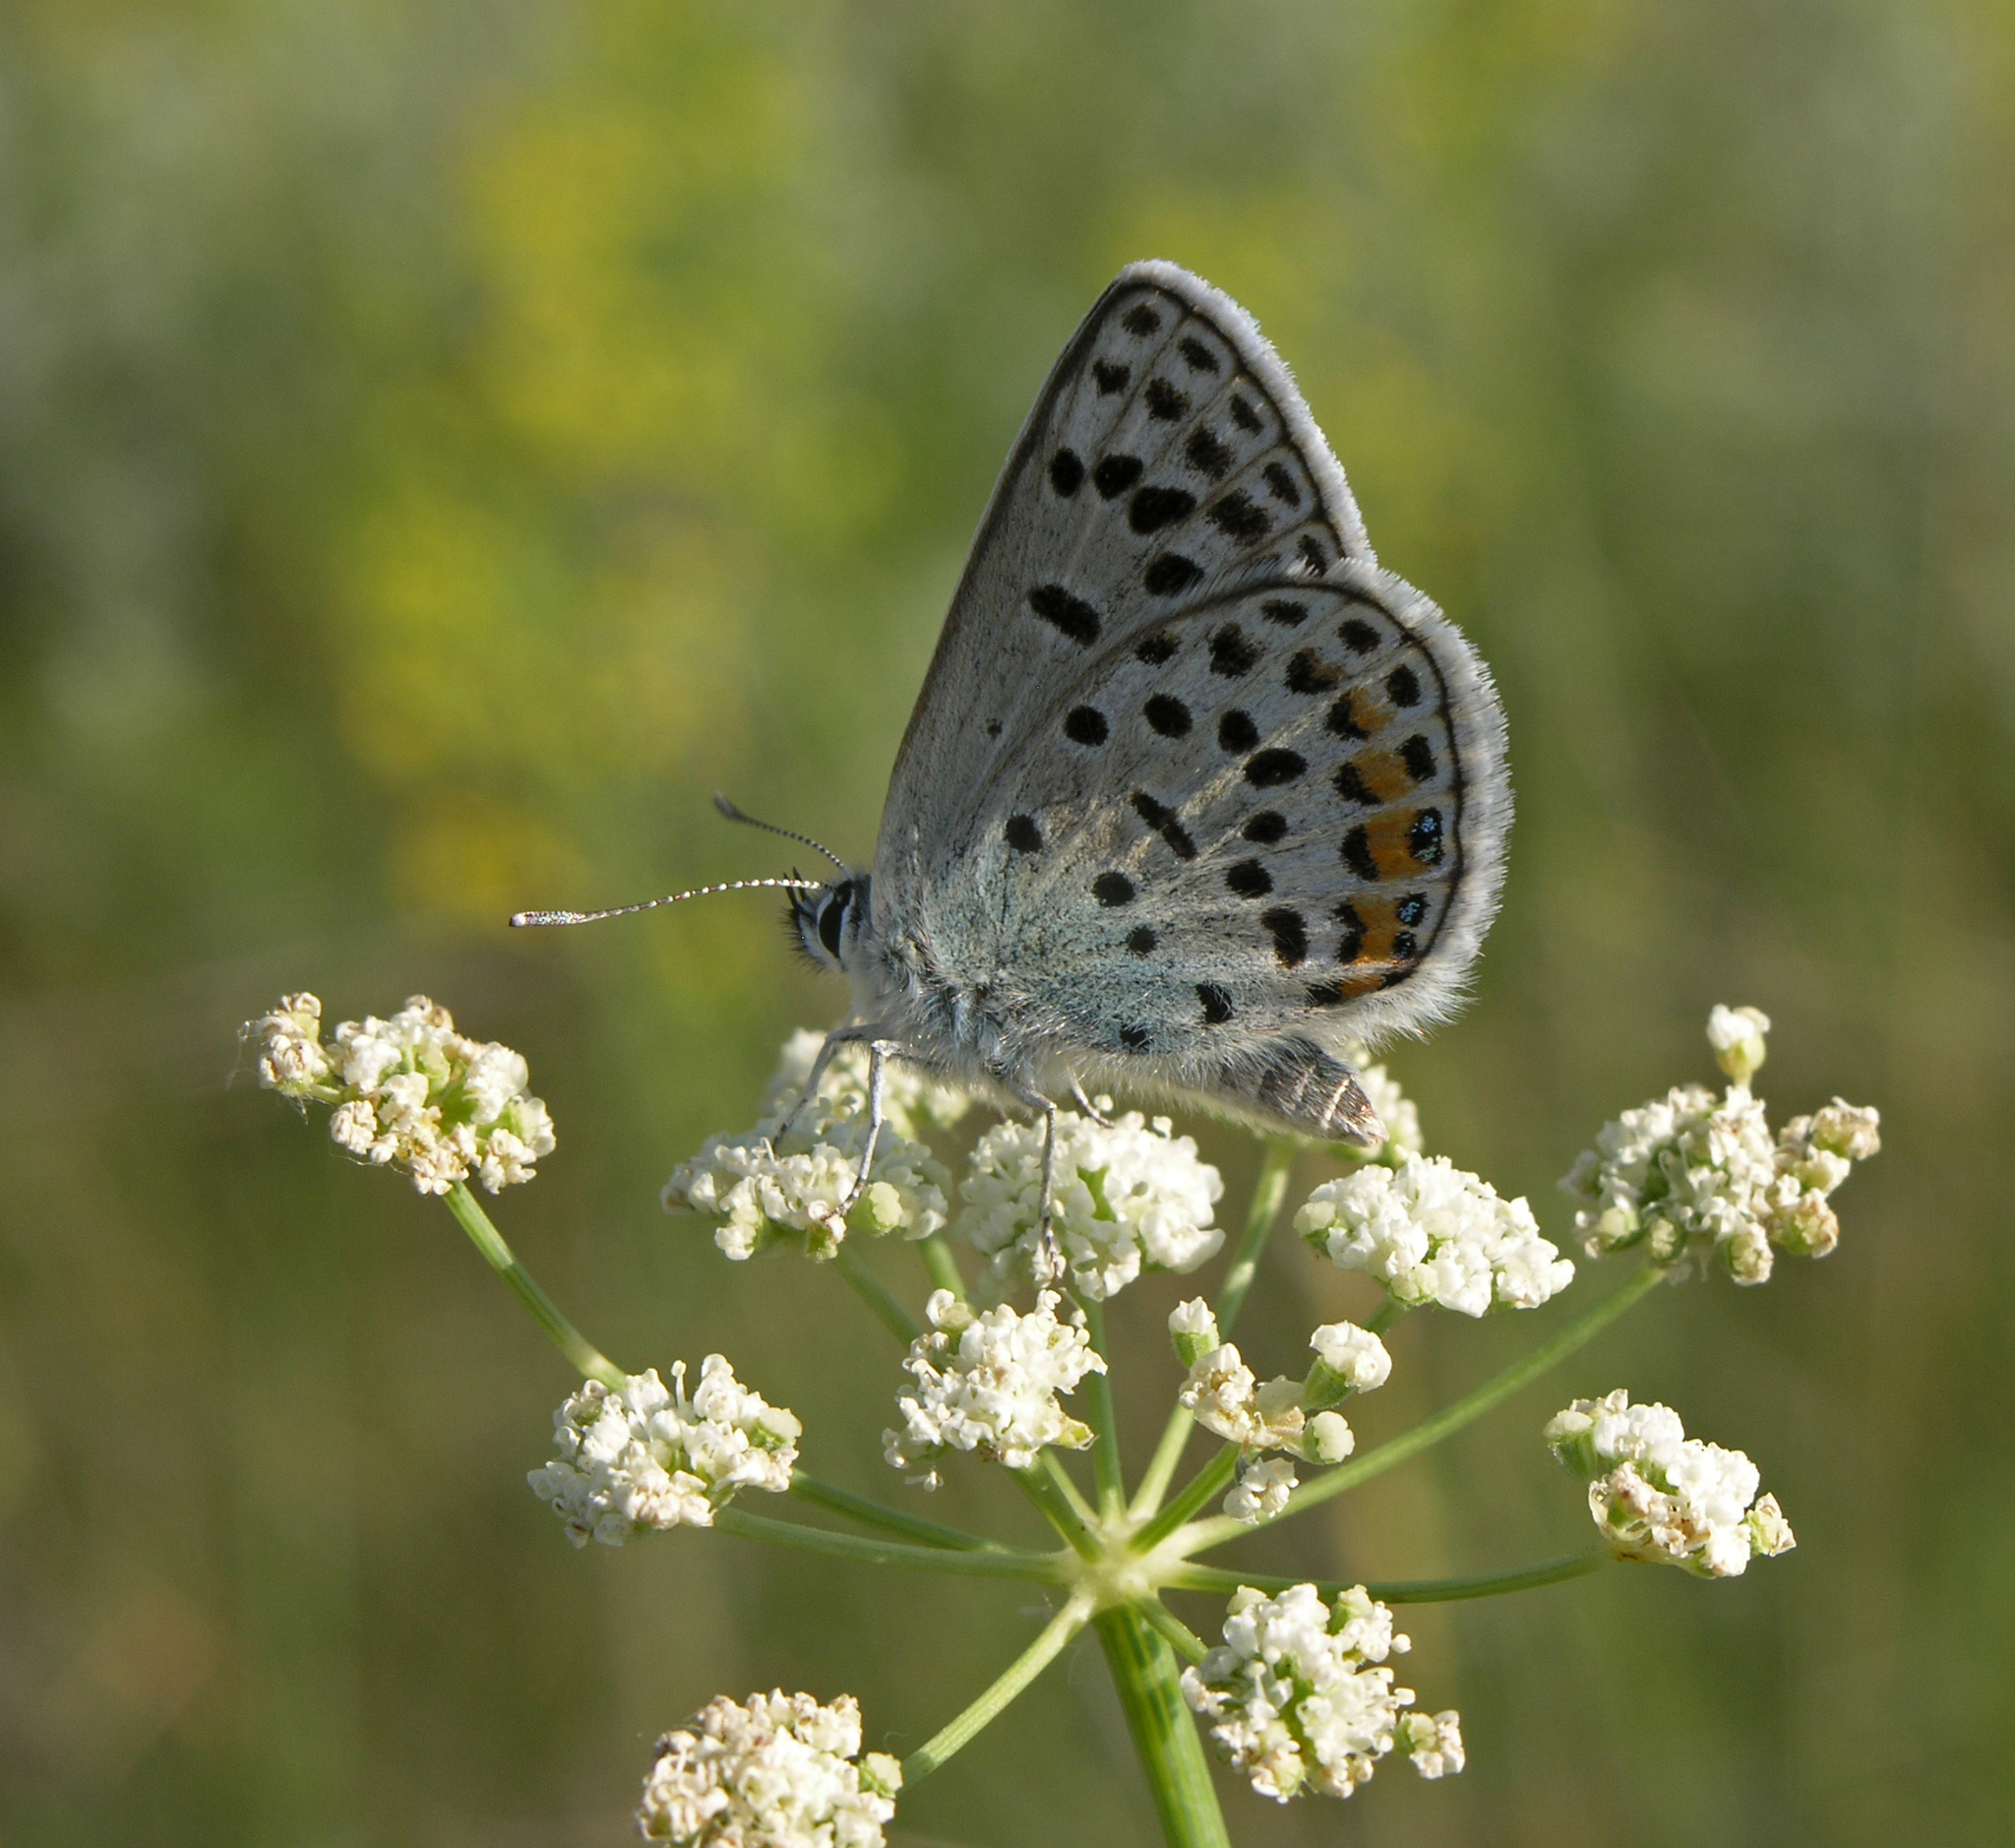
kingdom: Animalia
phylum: Arthropoda
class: Insecta
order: Lepidoptera
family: Lycaenidae
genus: Glabroculus
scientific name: Glabroculus cyane
